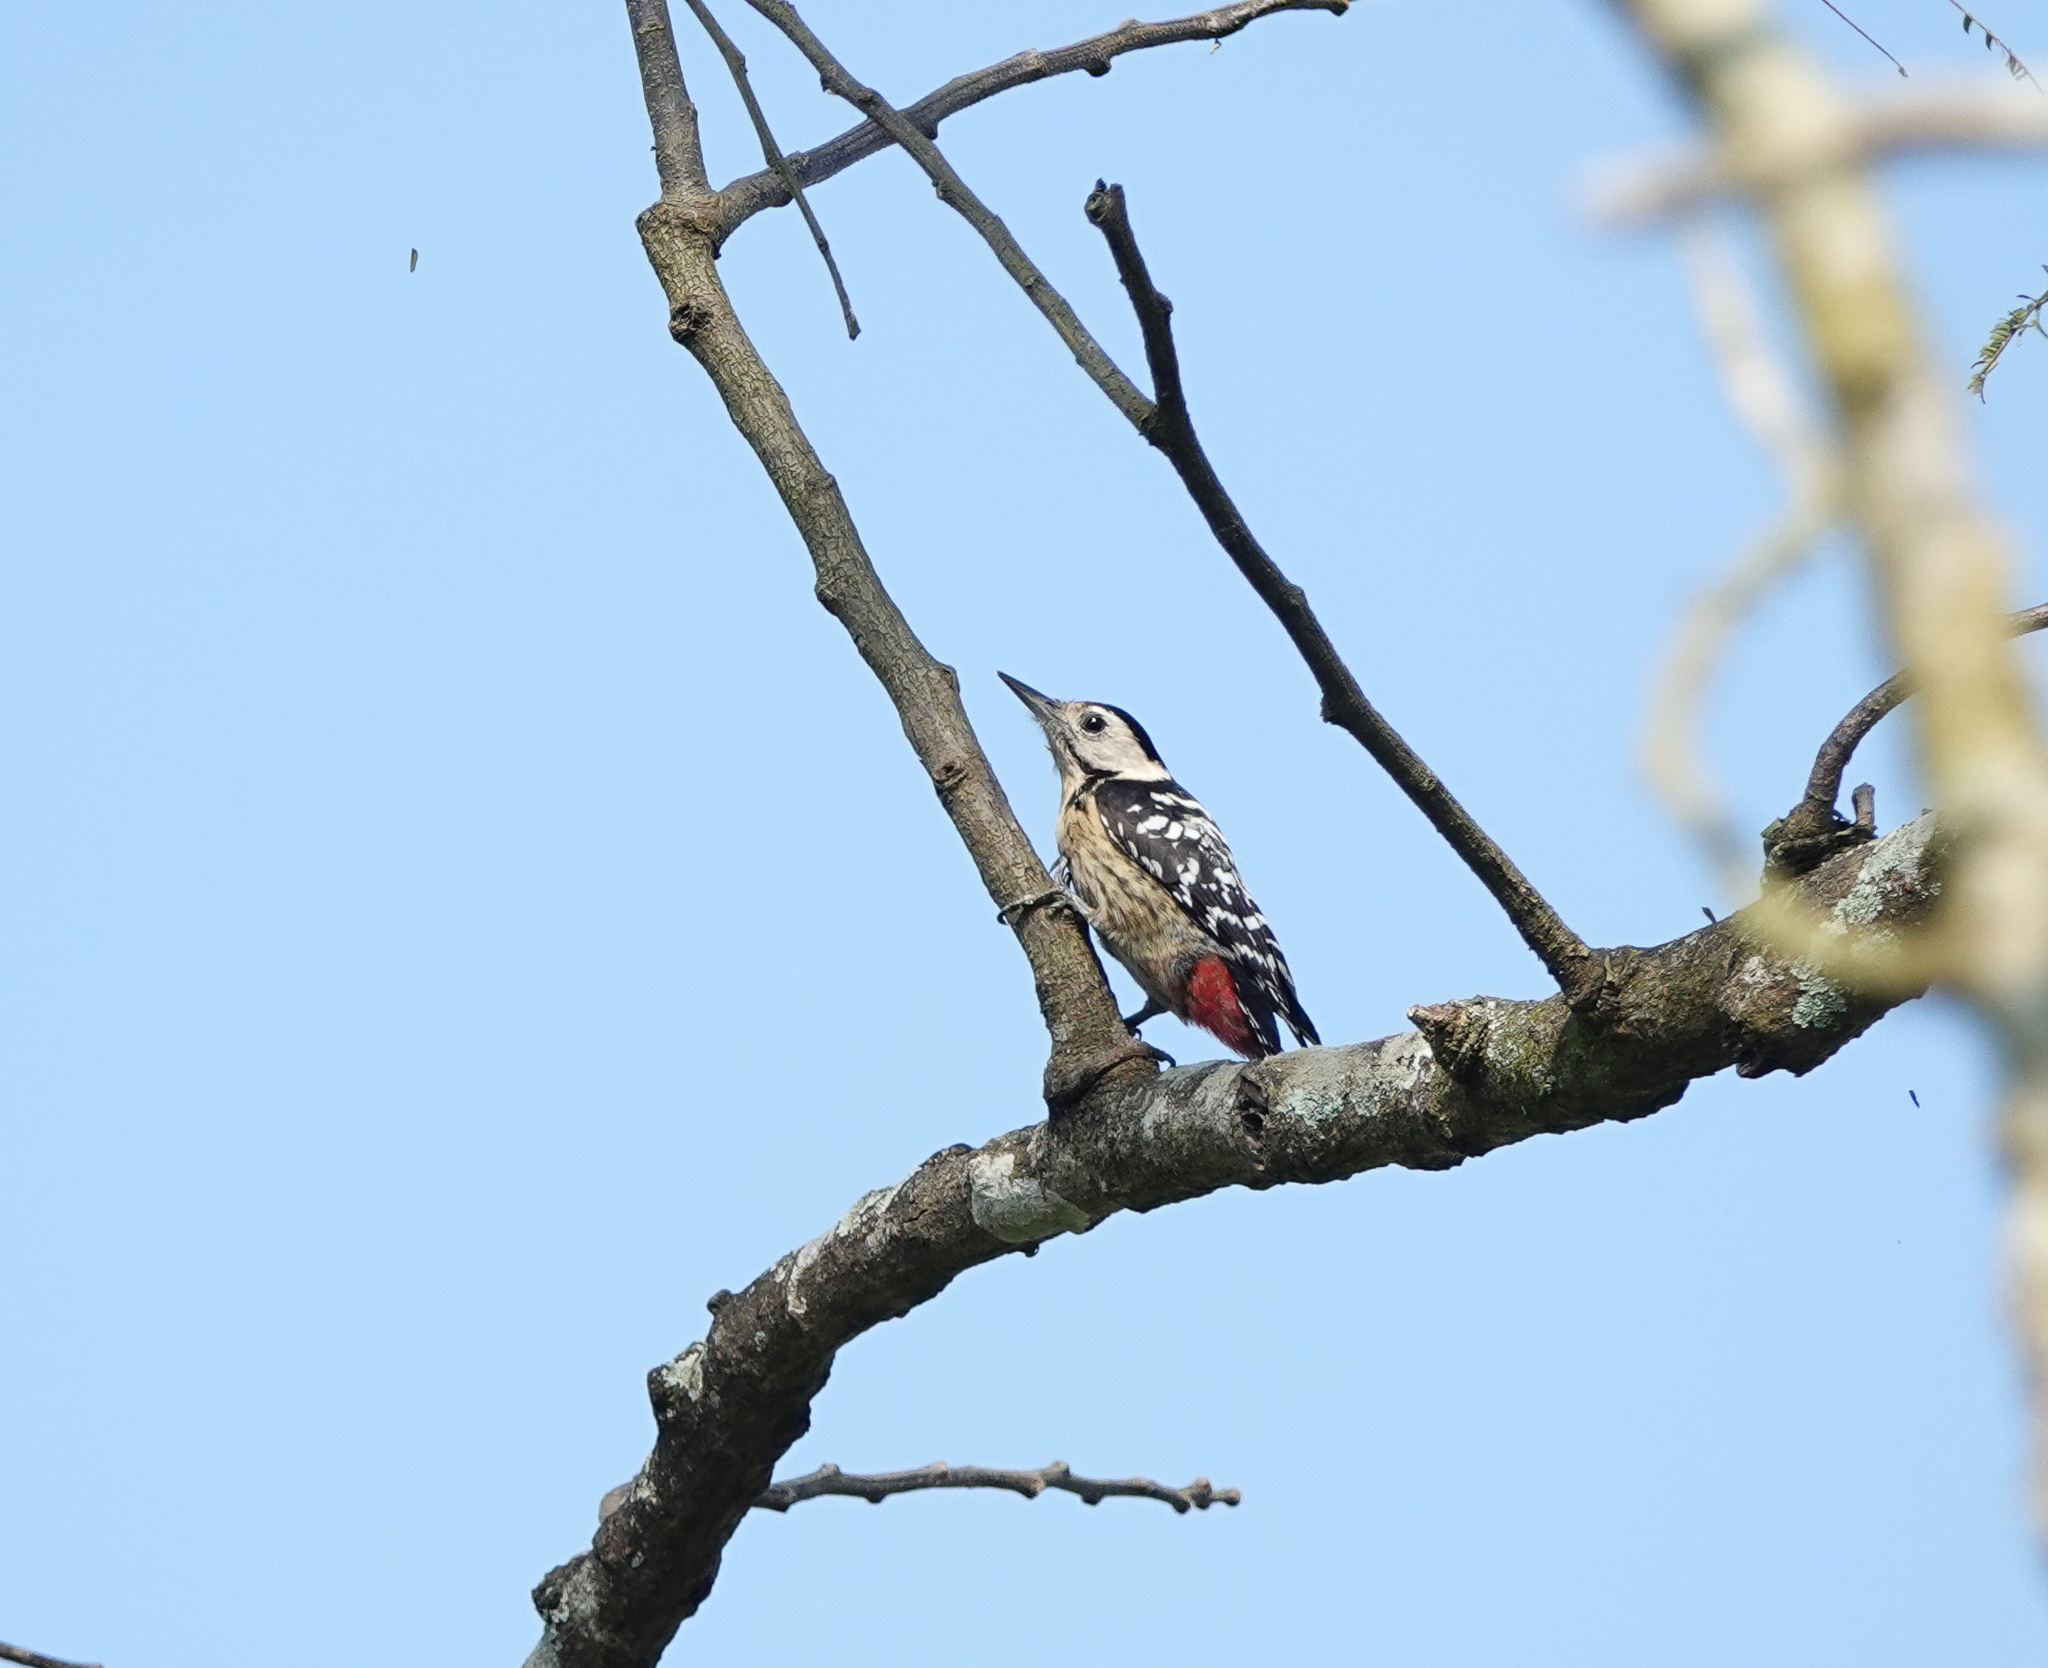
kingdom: Animalia
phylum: Chordata
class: Aves
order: Piciformes
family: Picidae
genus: Dendrocopos
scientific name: Dendrocopos macei
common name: Fulvous-breasted woodpecker
